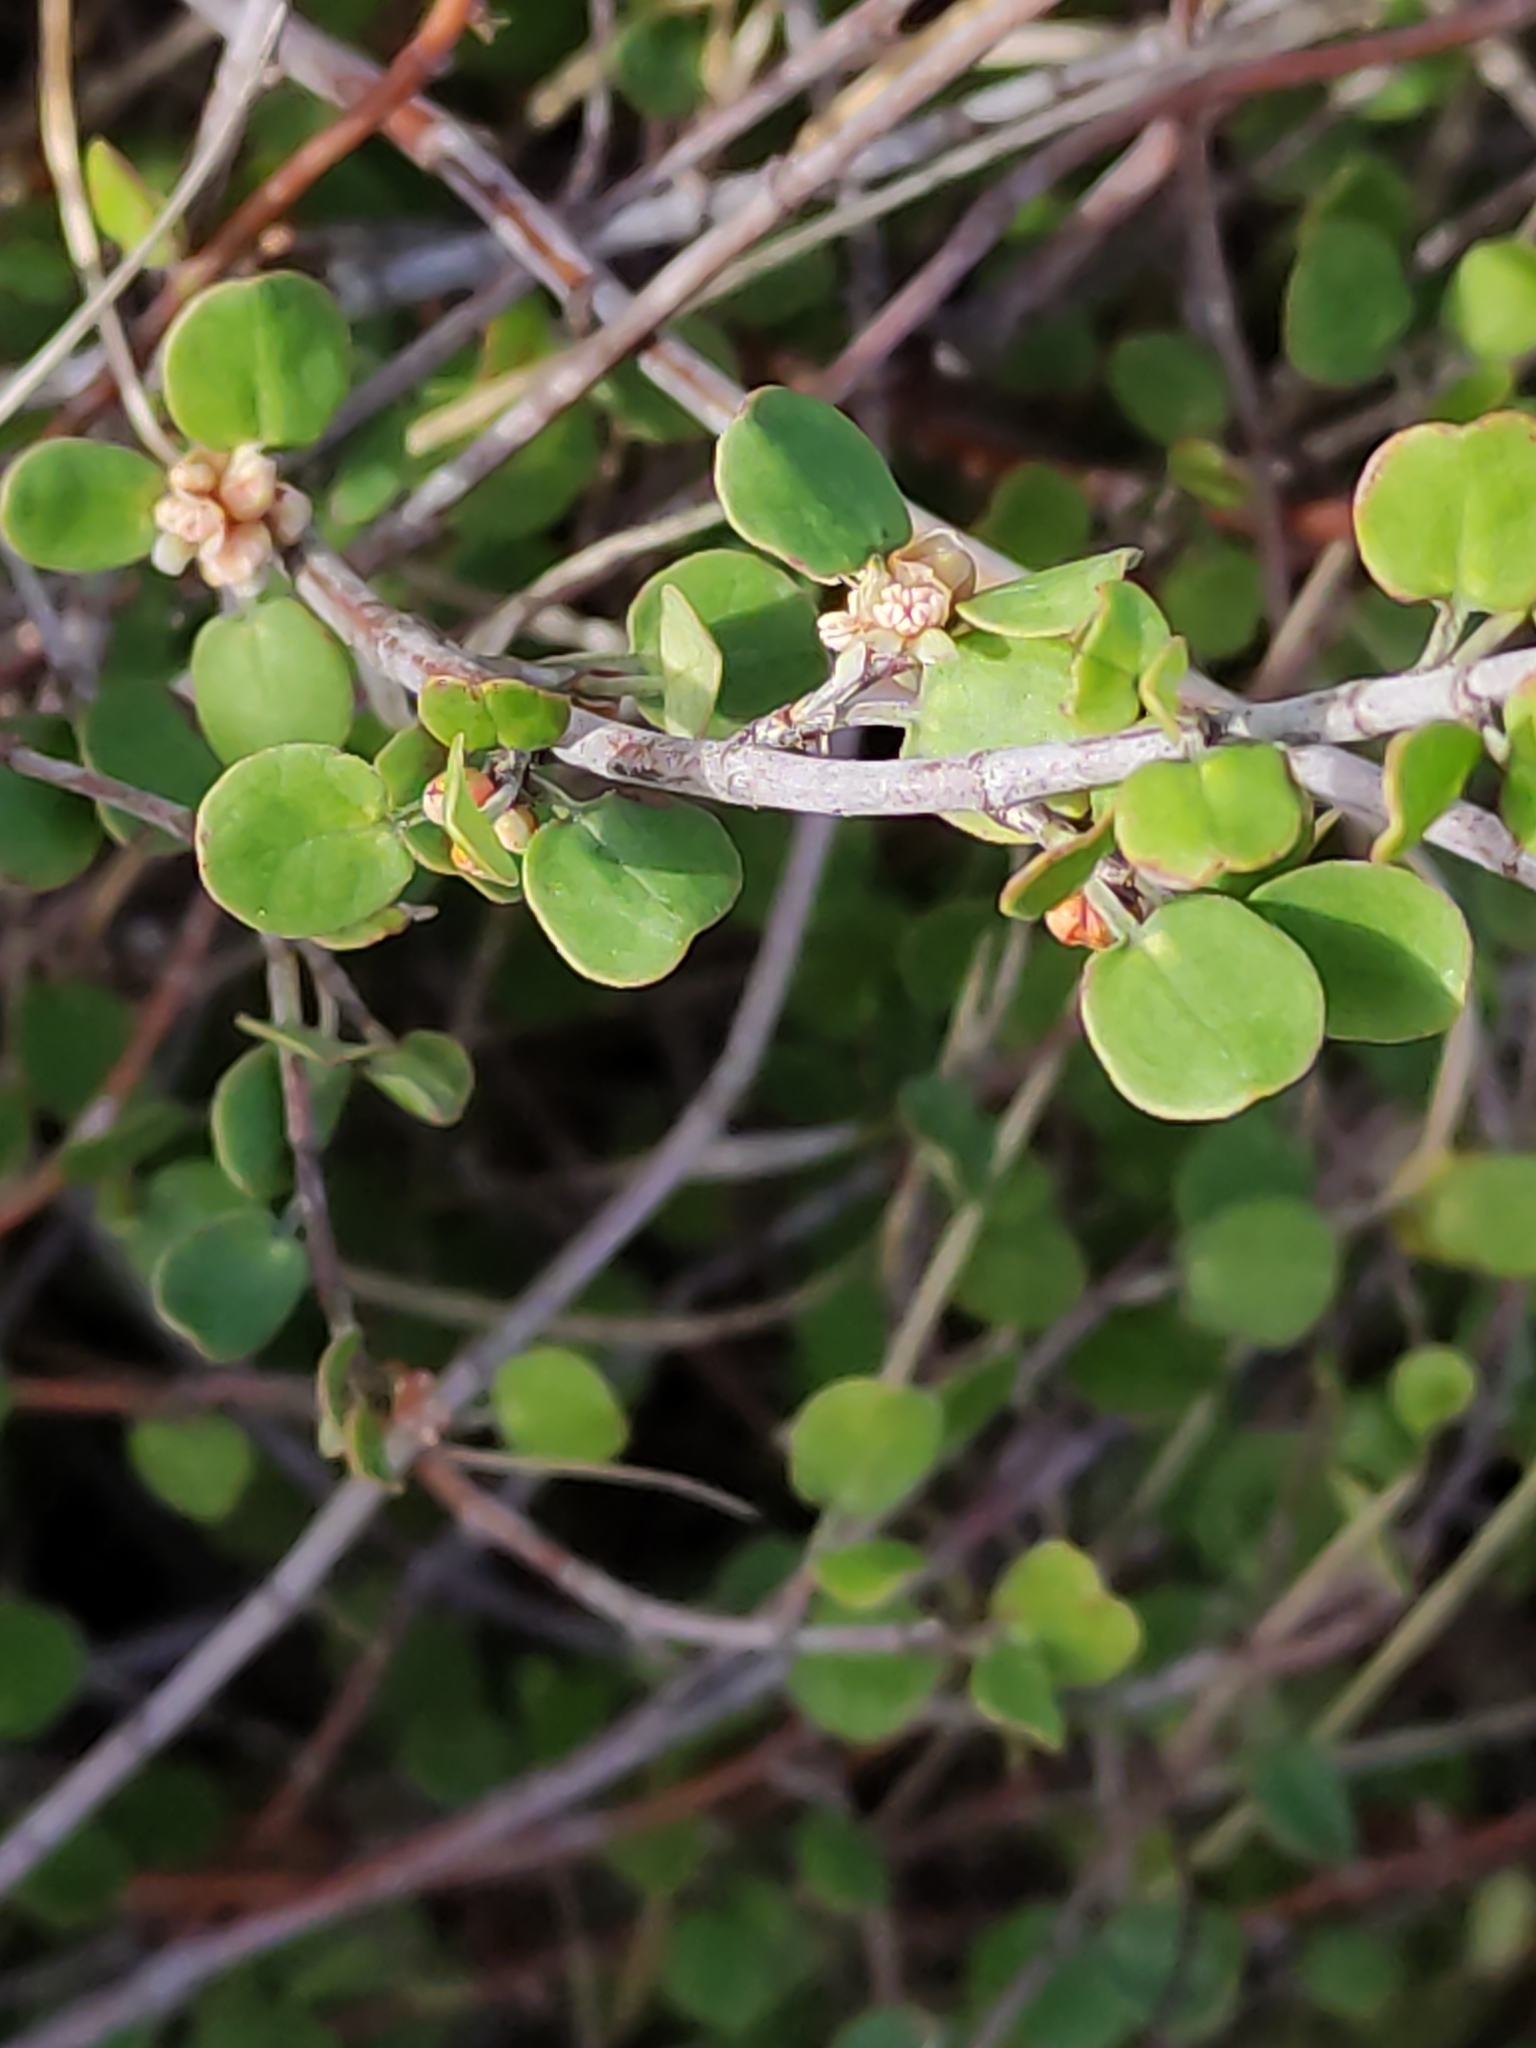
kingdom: Plantae
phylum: Tracheophyta
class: Magnoliopsida
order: Caryophyllales
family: Polygonaceae
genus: Muehlenbeckia
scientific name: Muehlenbeckia complexa
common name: Wireplant
